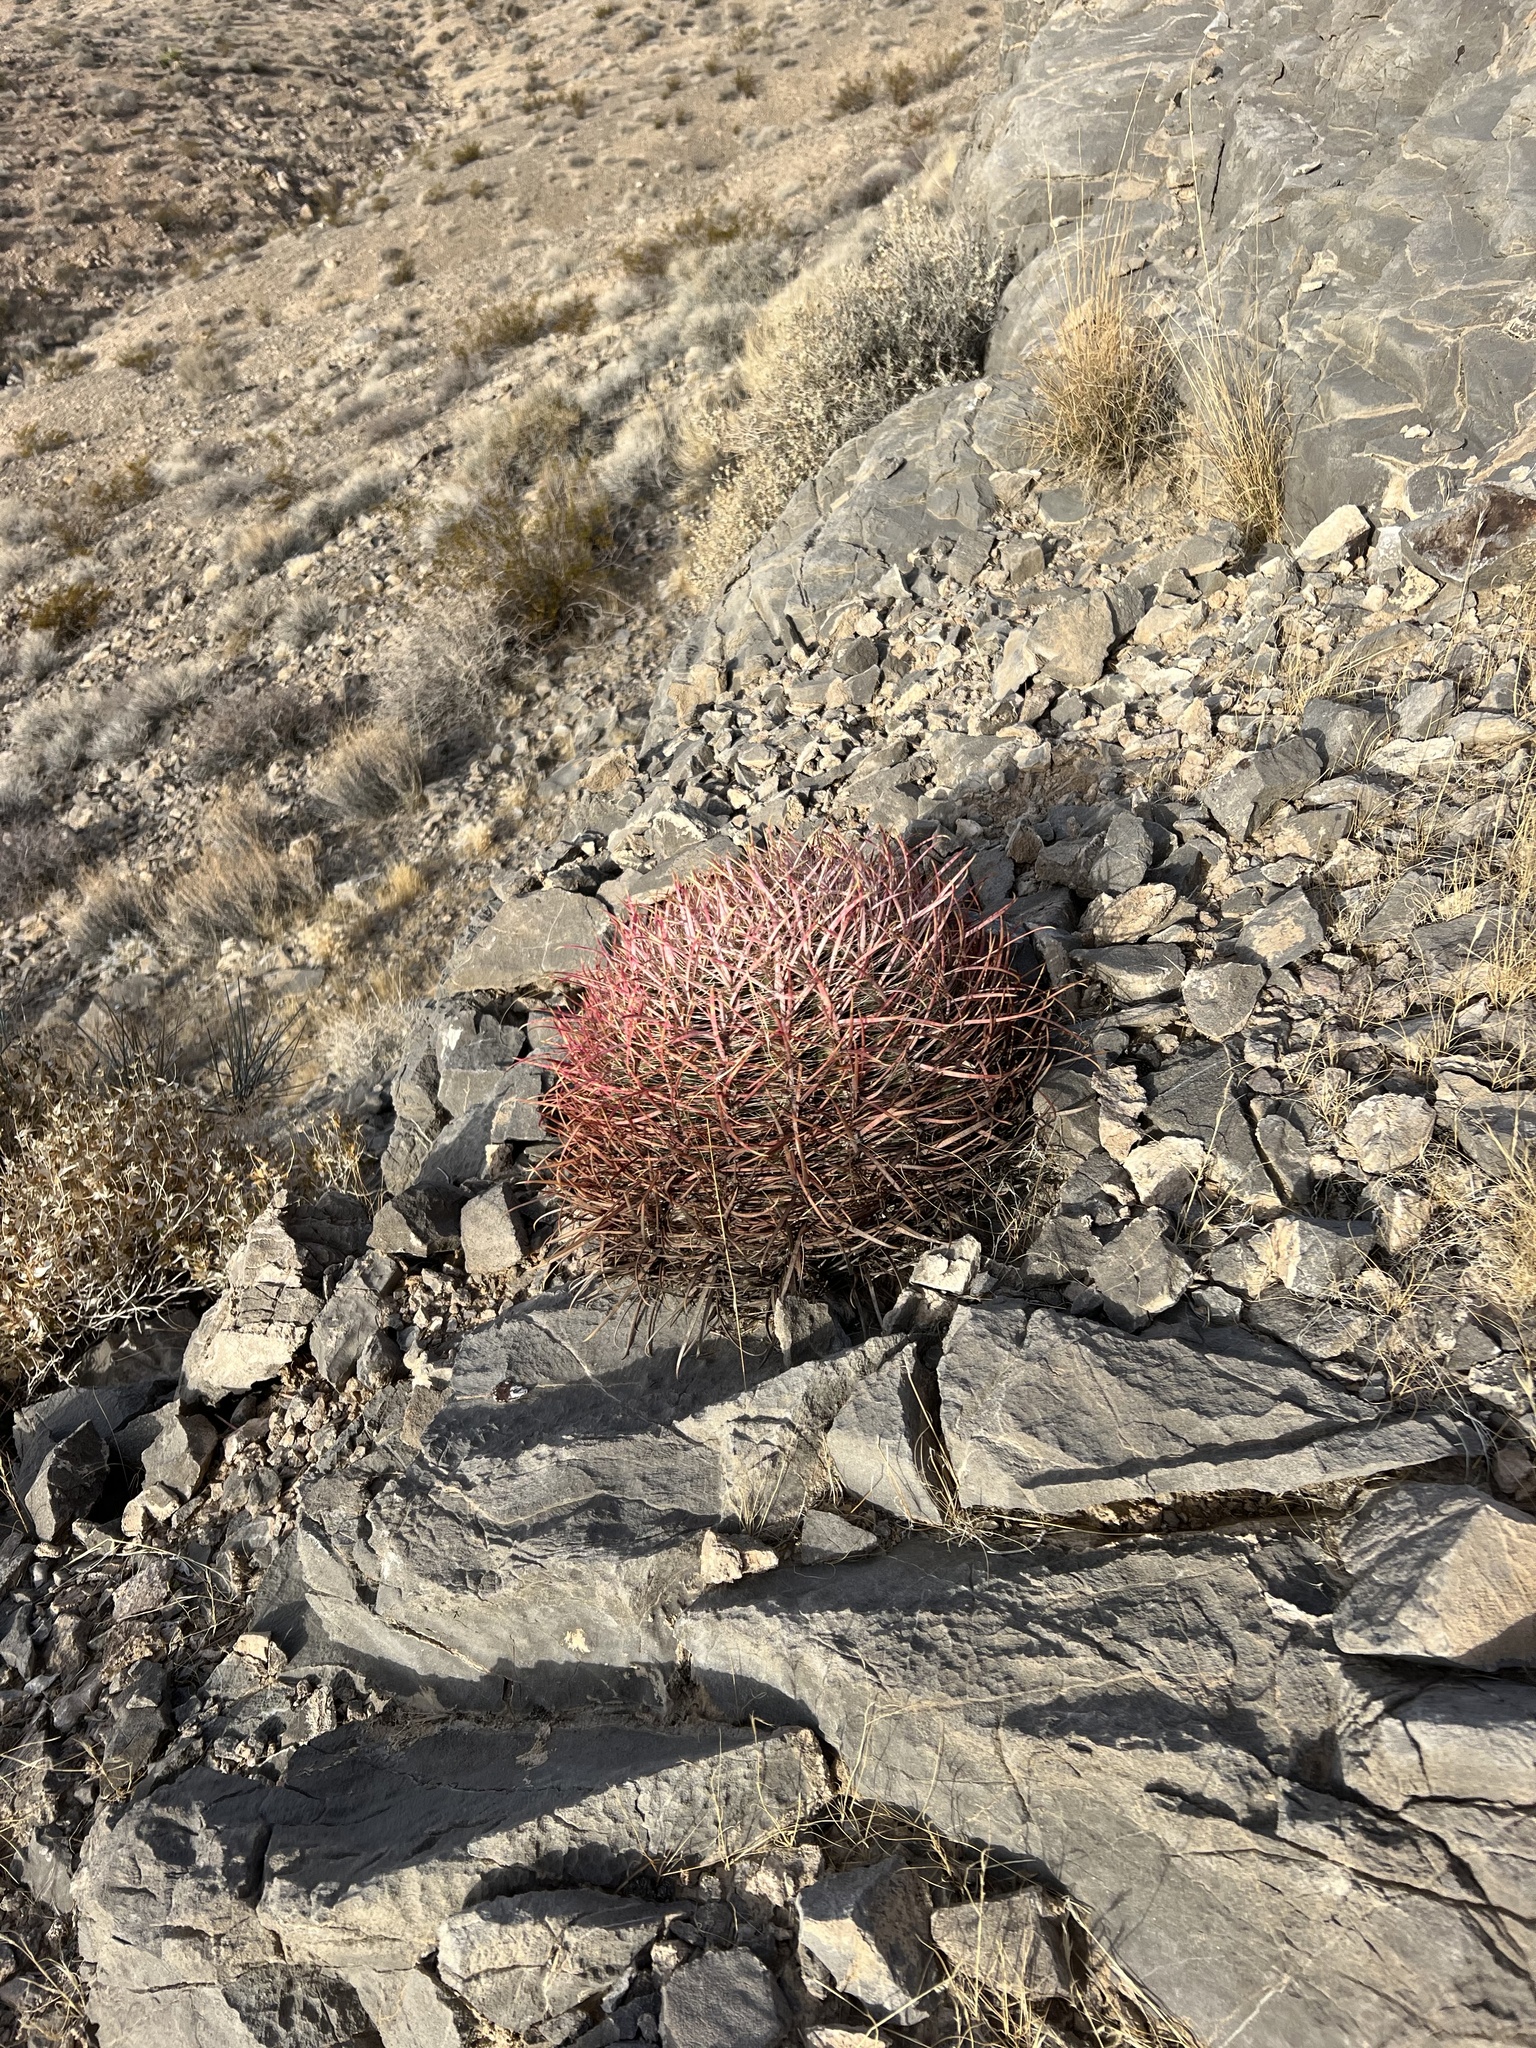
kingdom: Plantae
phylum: Tracheophyta
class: Magnoliopsida
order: Caryophyllales
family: Cactaceae
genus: Ferocactus
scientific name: Ferocactus cylindraceus
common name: California barrel cactus
